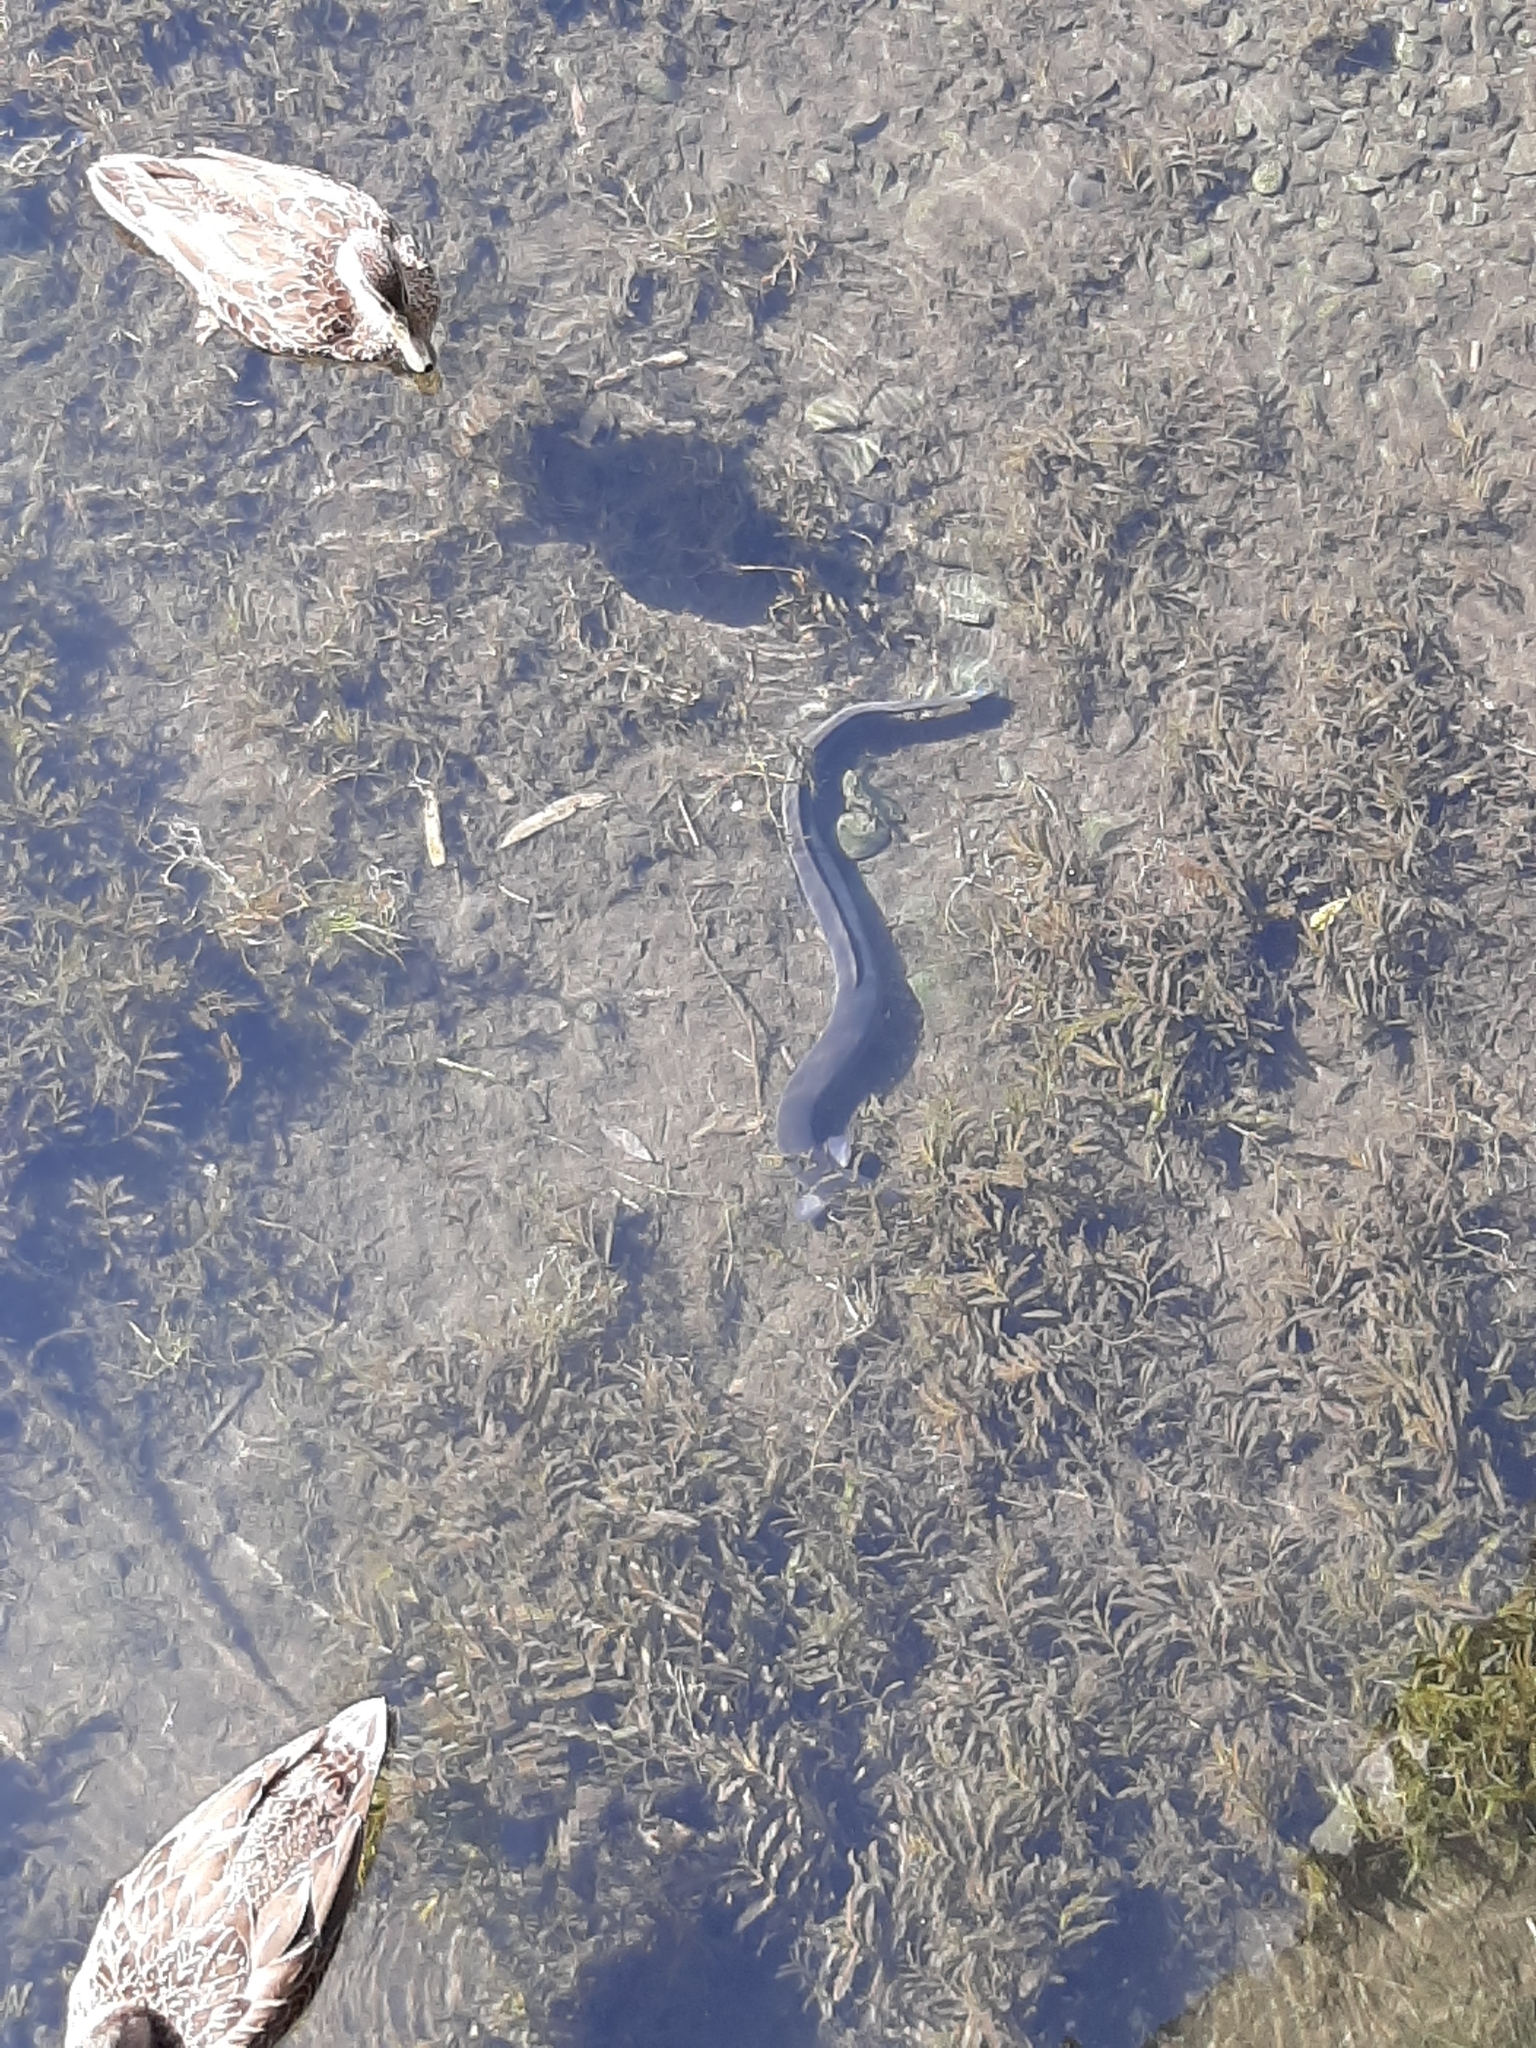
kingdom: Animalia
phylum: Chordata
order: Anguilliformes
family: Anguillidae
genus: Anguilla
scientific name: Anguilla australis
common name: Shortfin eel
